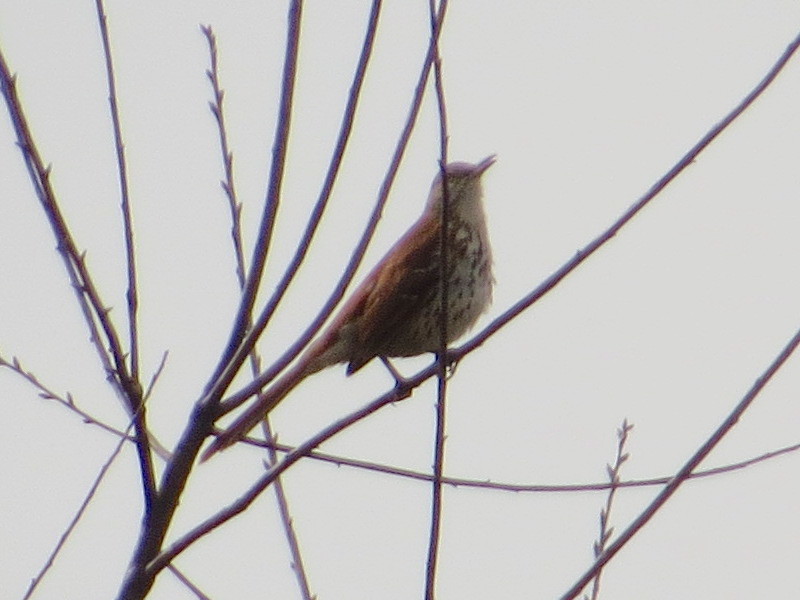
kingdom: Animalia
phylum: Chordata
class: Aves
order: Passeriformes
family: Mimidae
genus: Toxostoma
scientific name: Toxostoma rufum
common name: Brown thrasher
